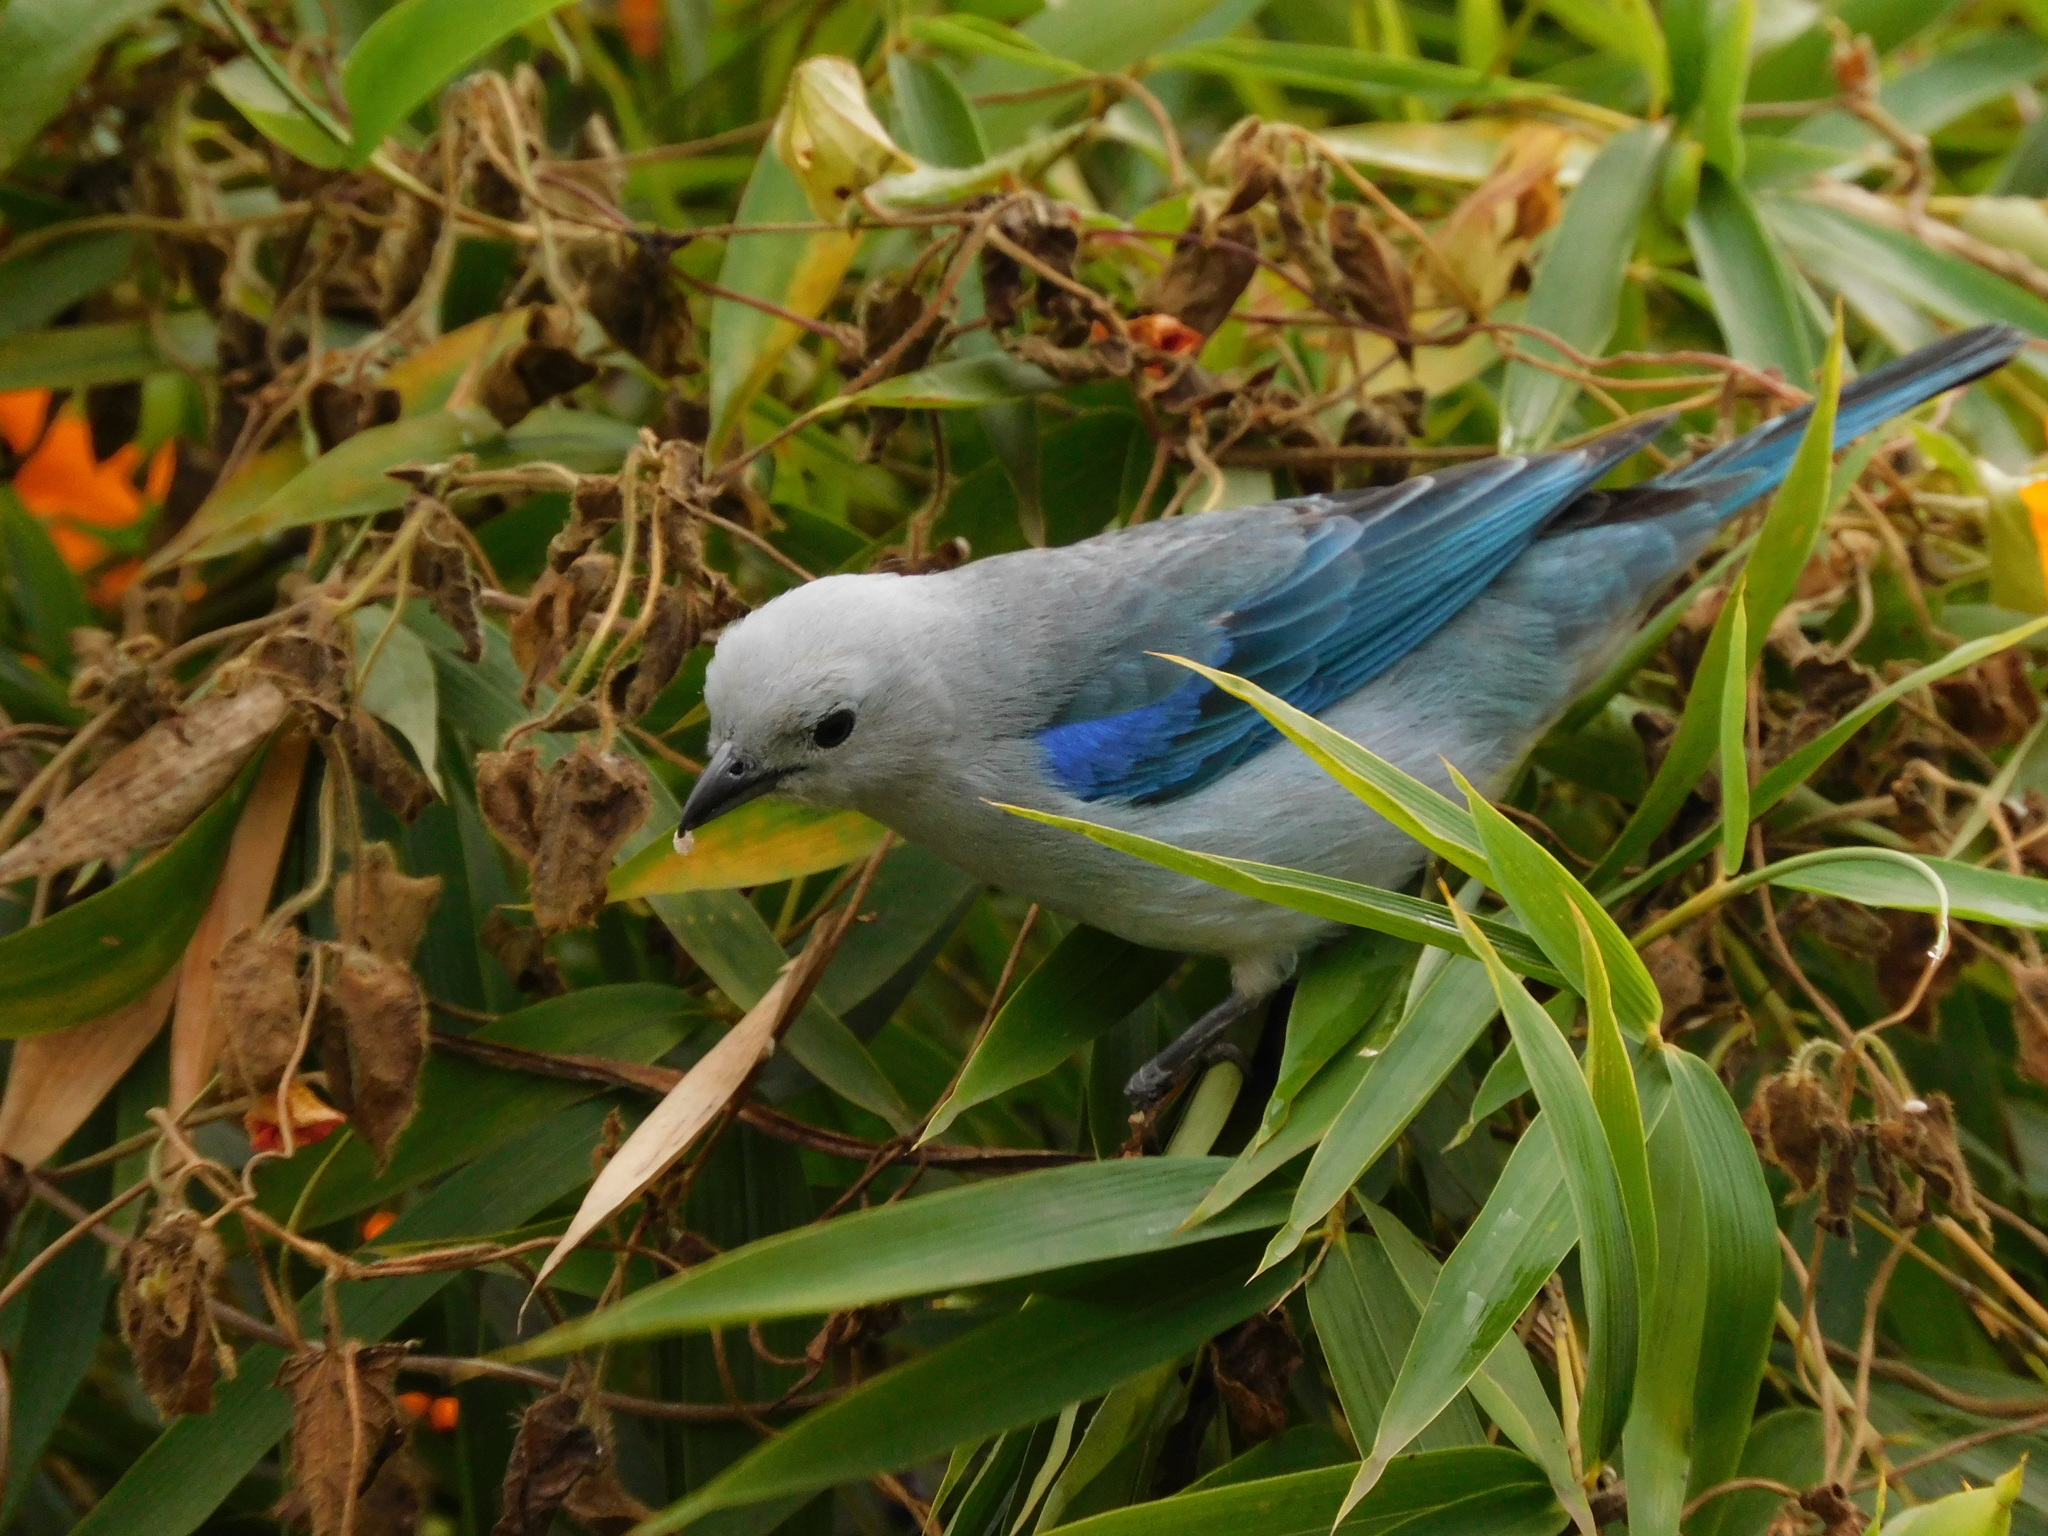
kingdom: Animalia
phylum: Chordata
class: Aves
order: Passeriformes
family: Thraupidae
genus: Thraupis
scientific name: Thraupis episcopus
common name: Blue-grey tanager
